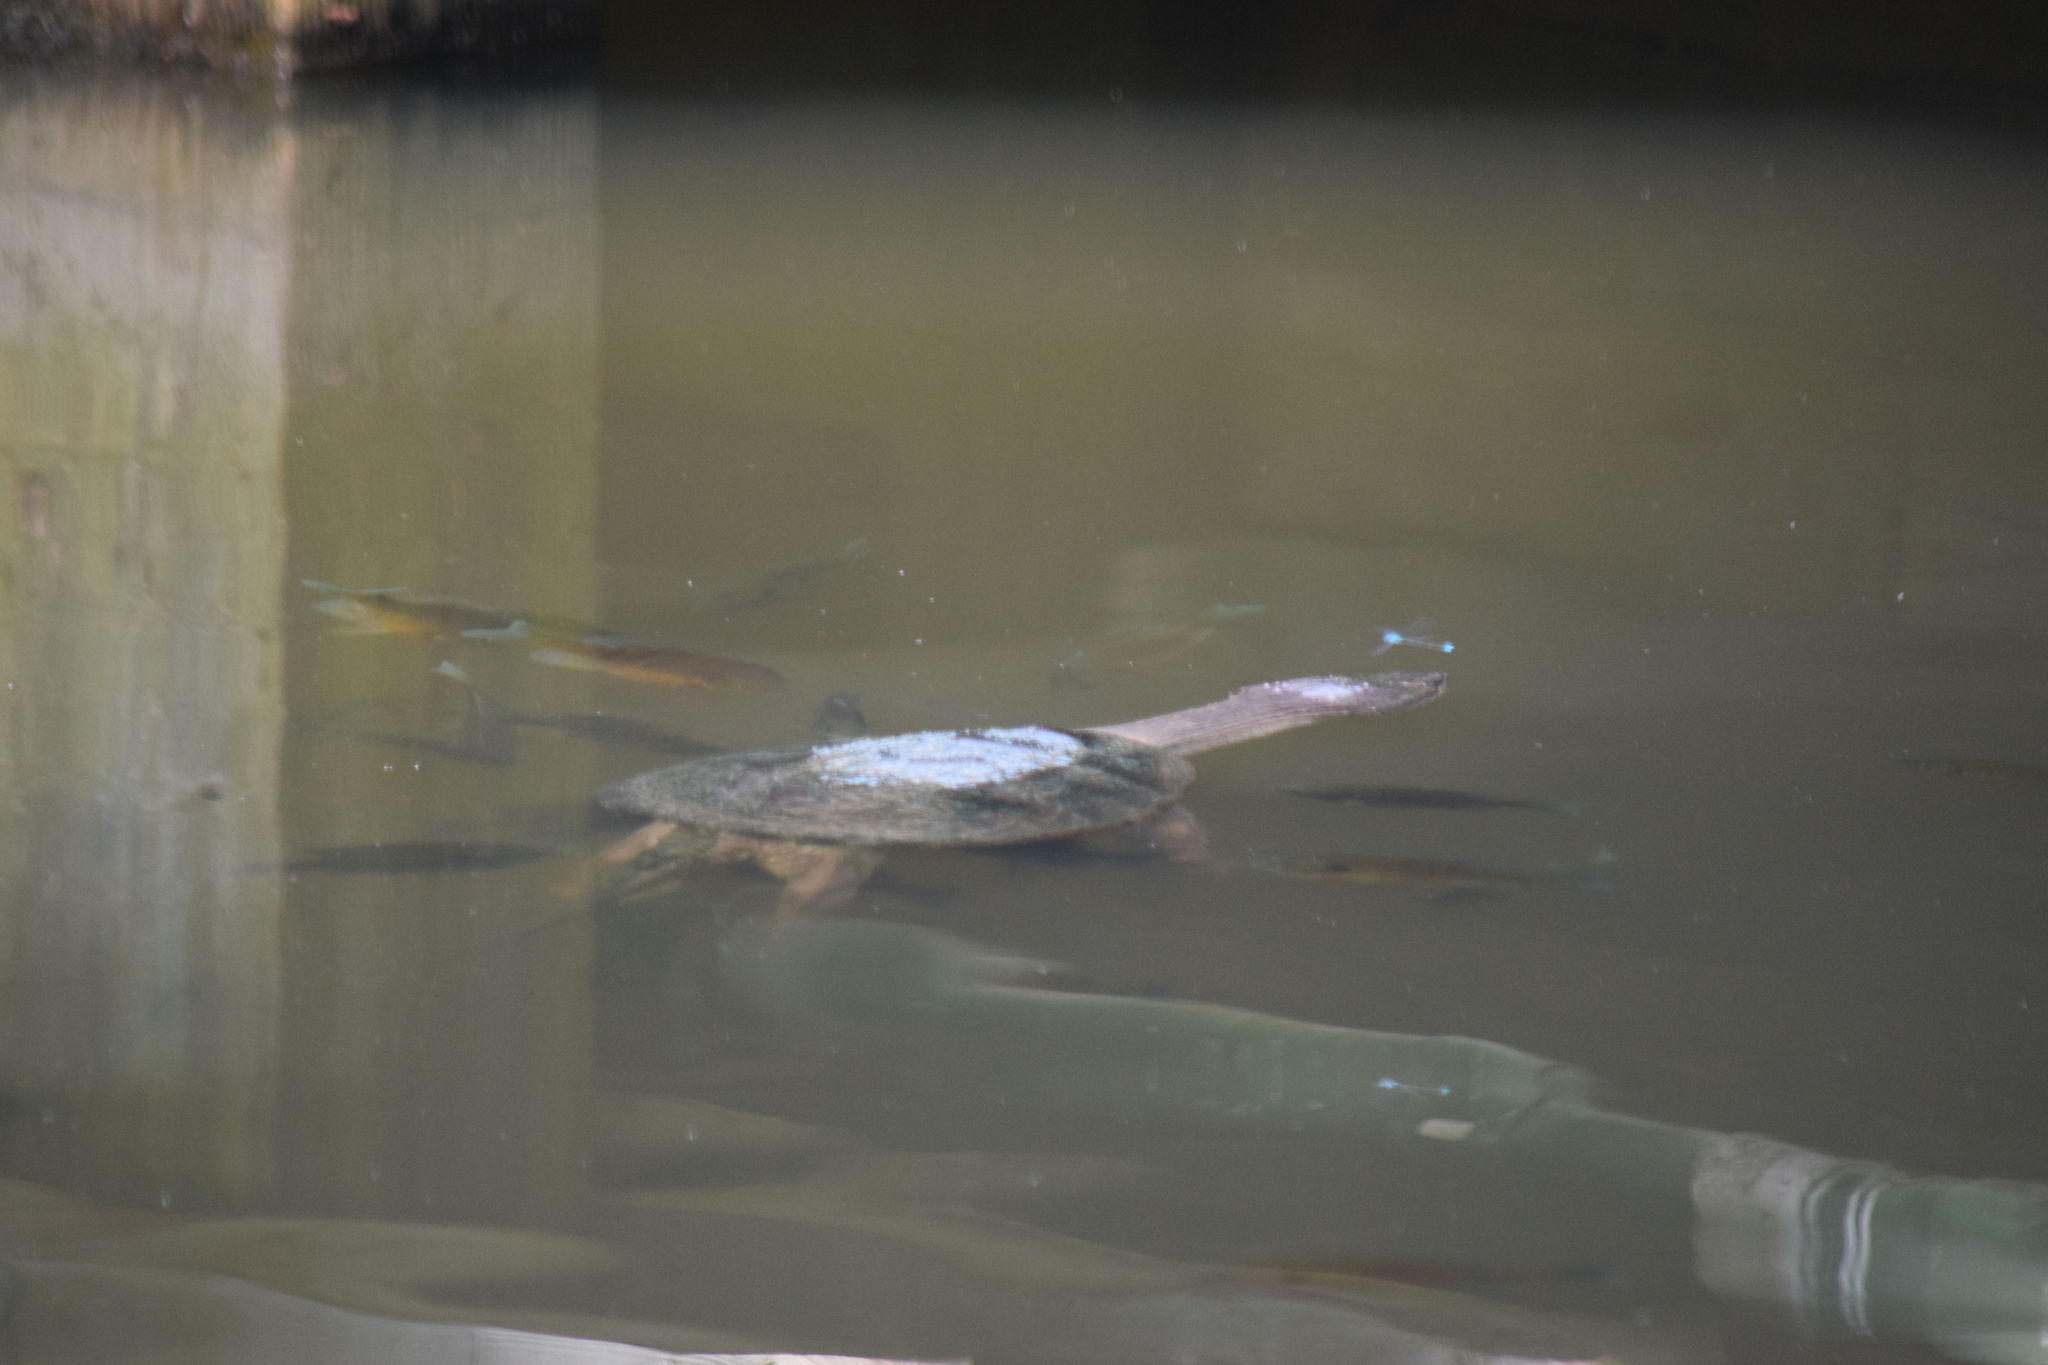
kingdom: Animalia
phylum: Chordata
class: Testudines
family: Chelydridae
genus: Chelydra
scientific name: Chelydra serpentina
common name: Common snapping turtle
